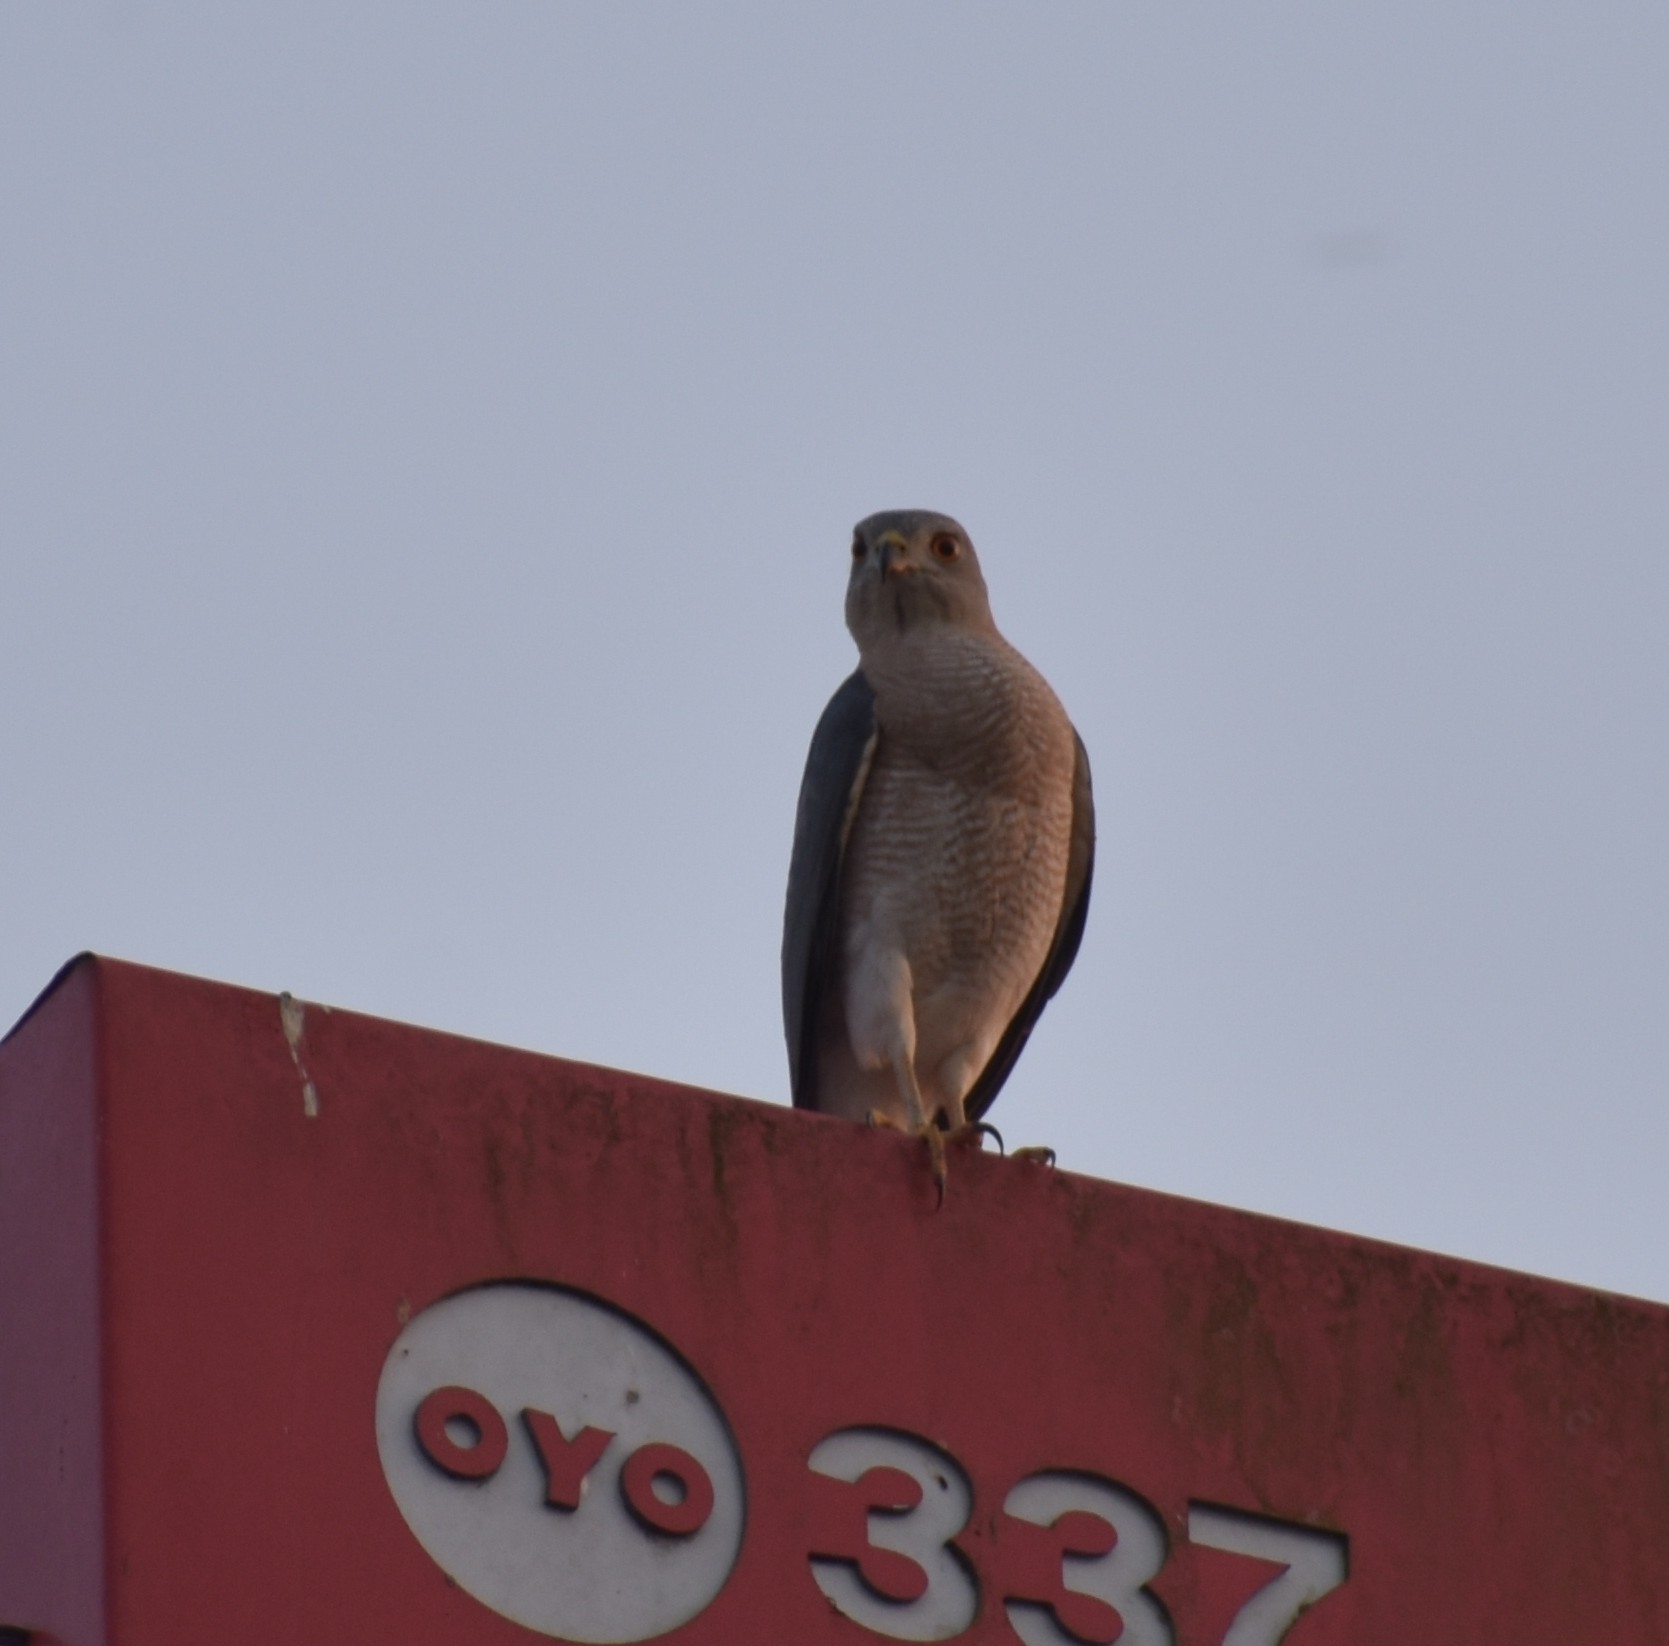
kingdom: Animalia
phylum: Chordata
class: Aves
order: Accipitriformes
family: Accipitridae
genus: Accipiter
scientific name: Accipiter badius
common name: Shikra
